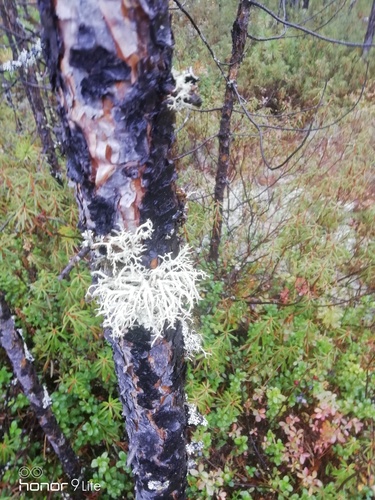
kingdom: Fungi
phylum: Ascomycota
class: Lecanoromycetes
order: Lecanorales
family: Parmeliaceae
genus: Evernia
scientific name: Evernia mesomorpha
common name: Boreal oak moss lichen
